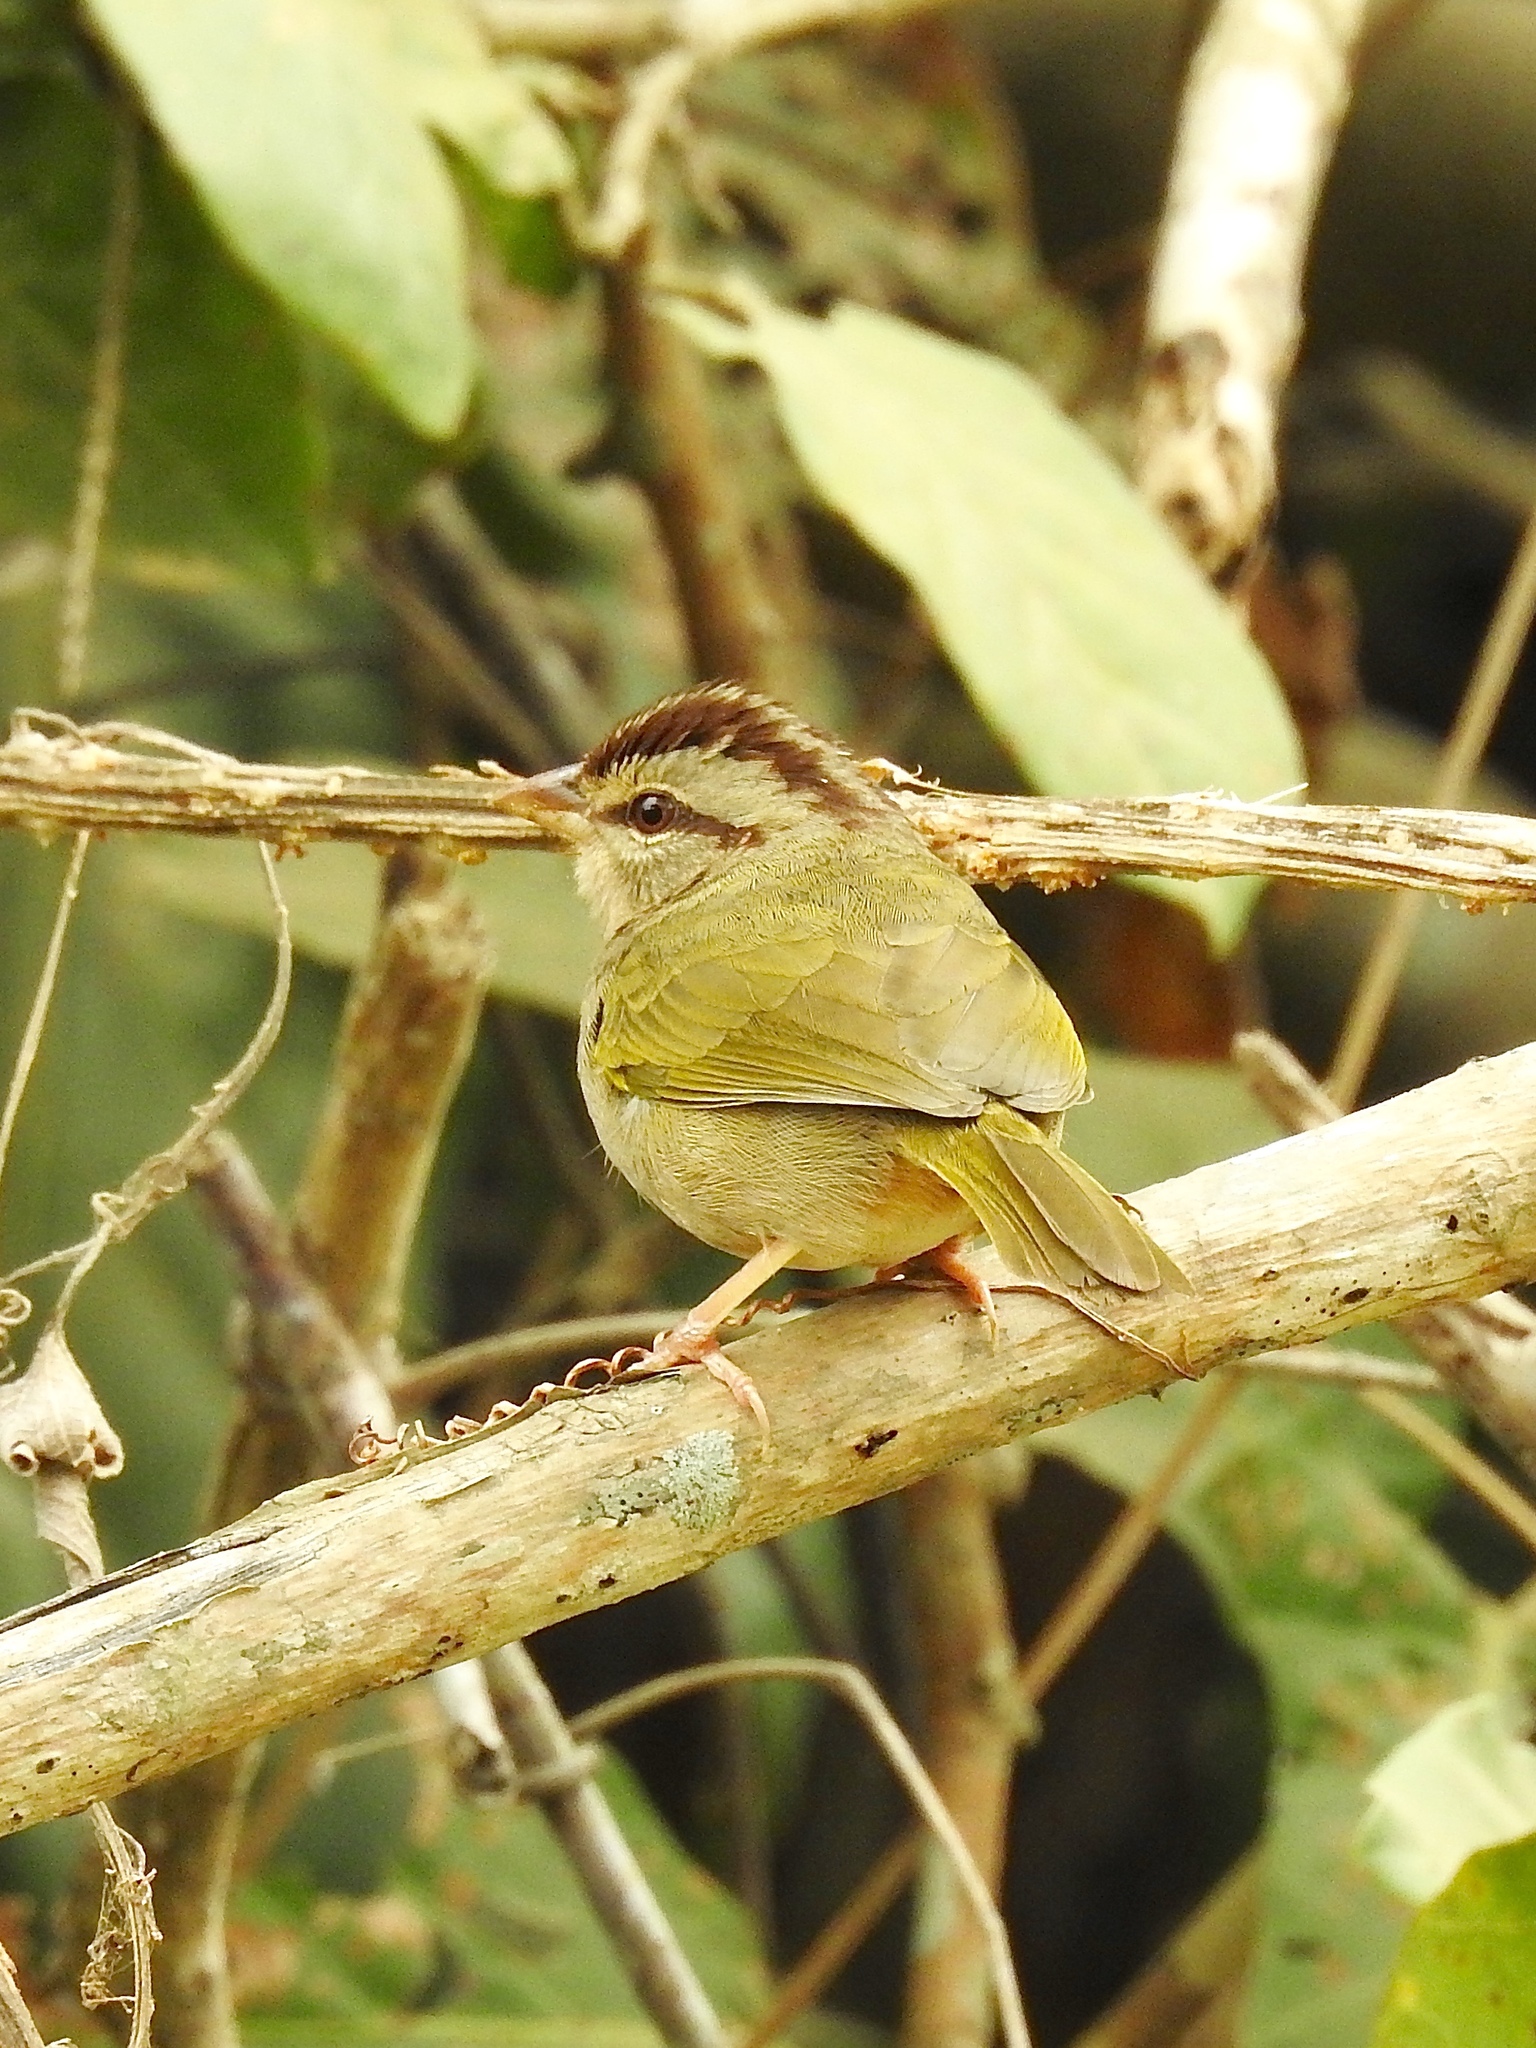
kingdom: Animalia
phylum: Chordata
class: Aves
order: Passeriformes
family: Passerellidae
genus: Arremonops
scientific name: Arremonops rufivirgatus
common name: Olive sparrow
